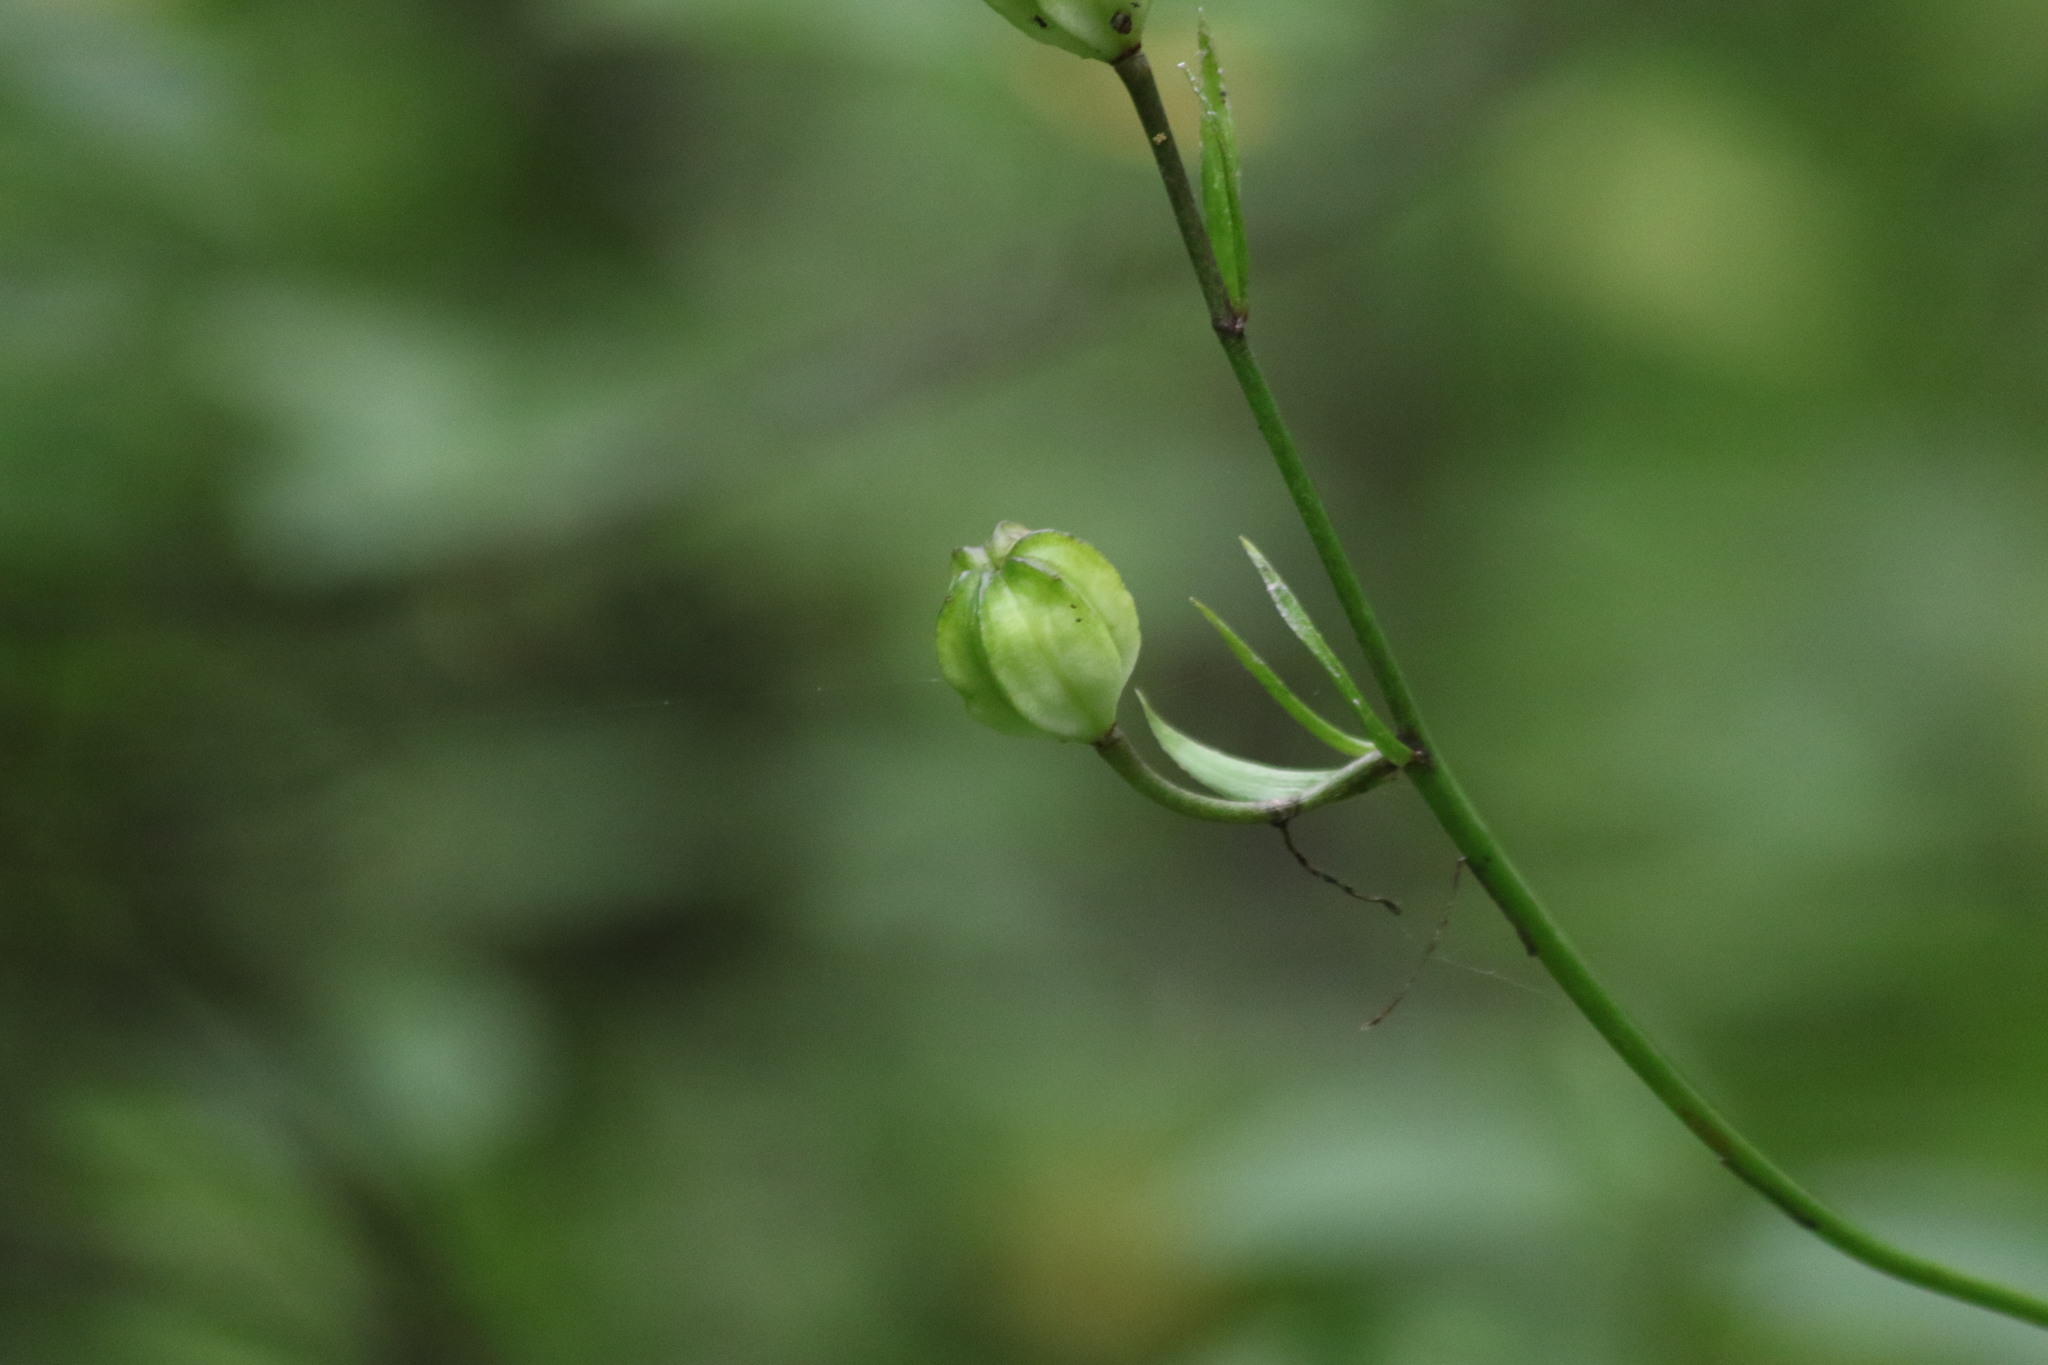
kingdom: Plantae
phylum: Tracheophyta
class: Liliopsida
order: Liliales
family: Liliaceae
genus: Lilium
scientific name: Lilium martagon
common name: Martagon lily
